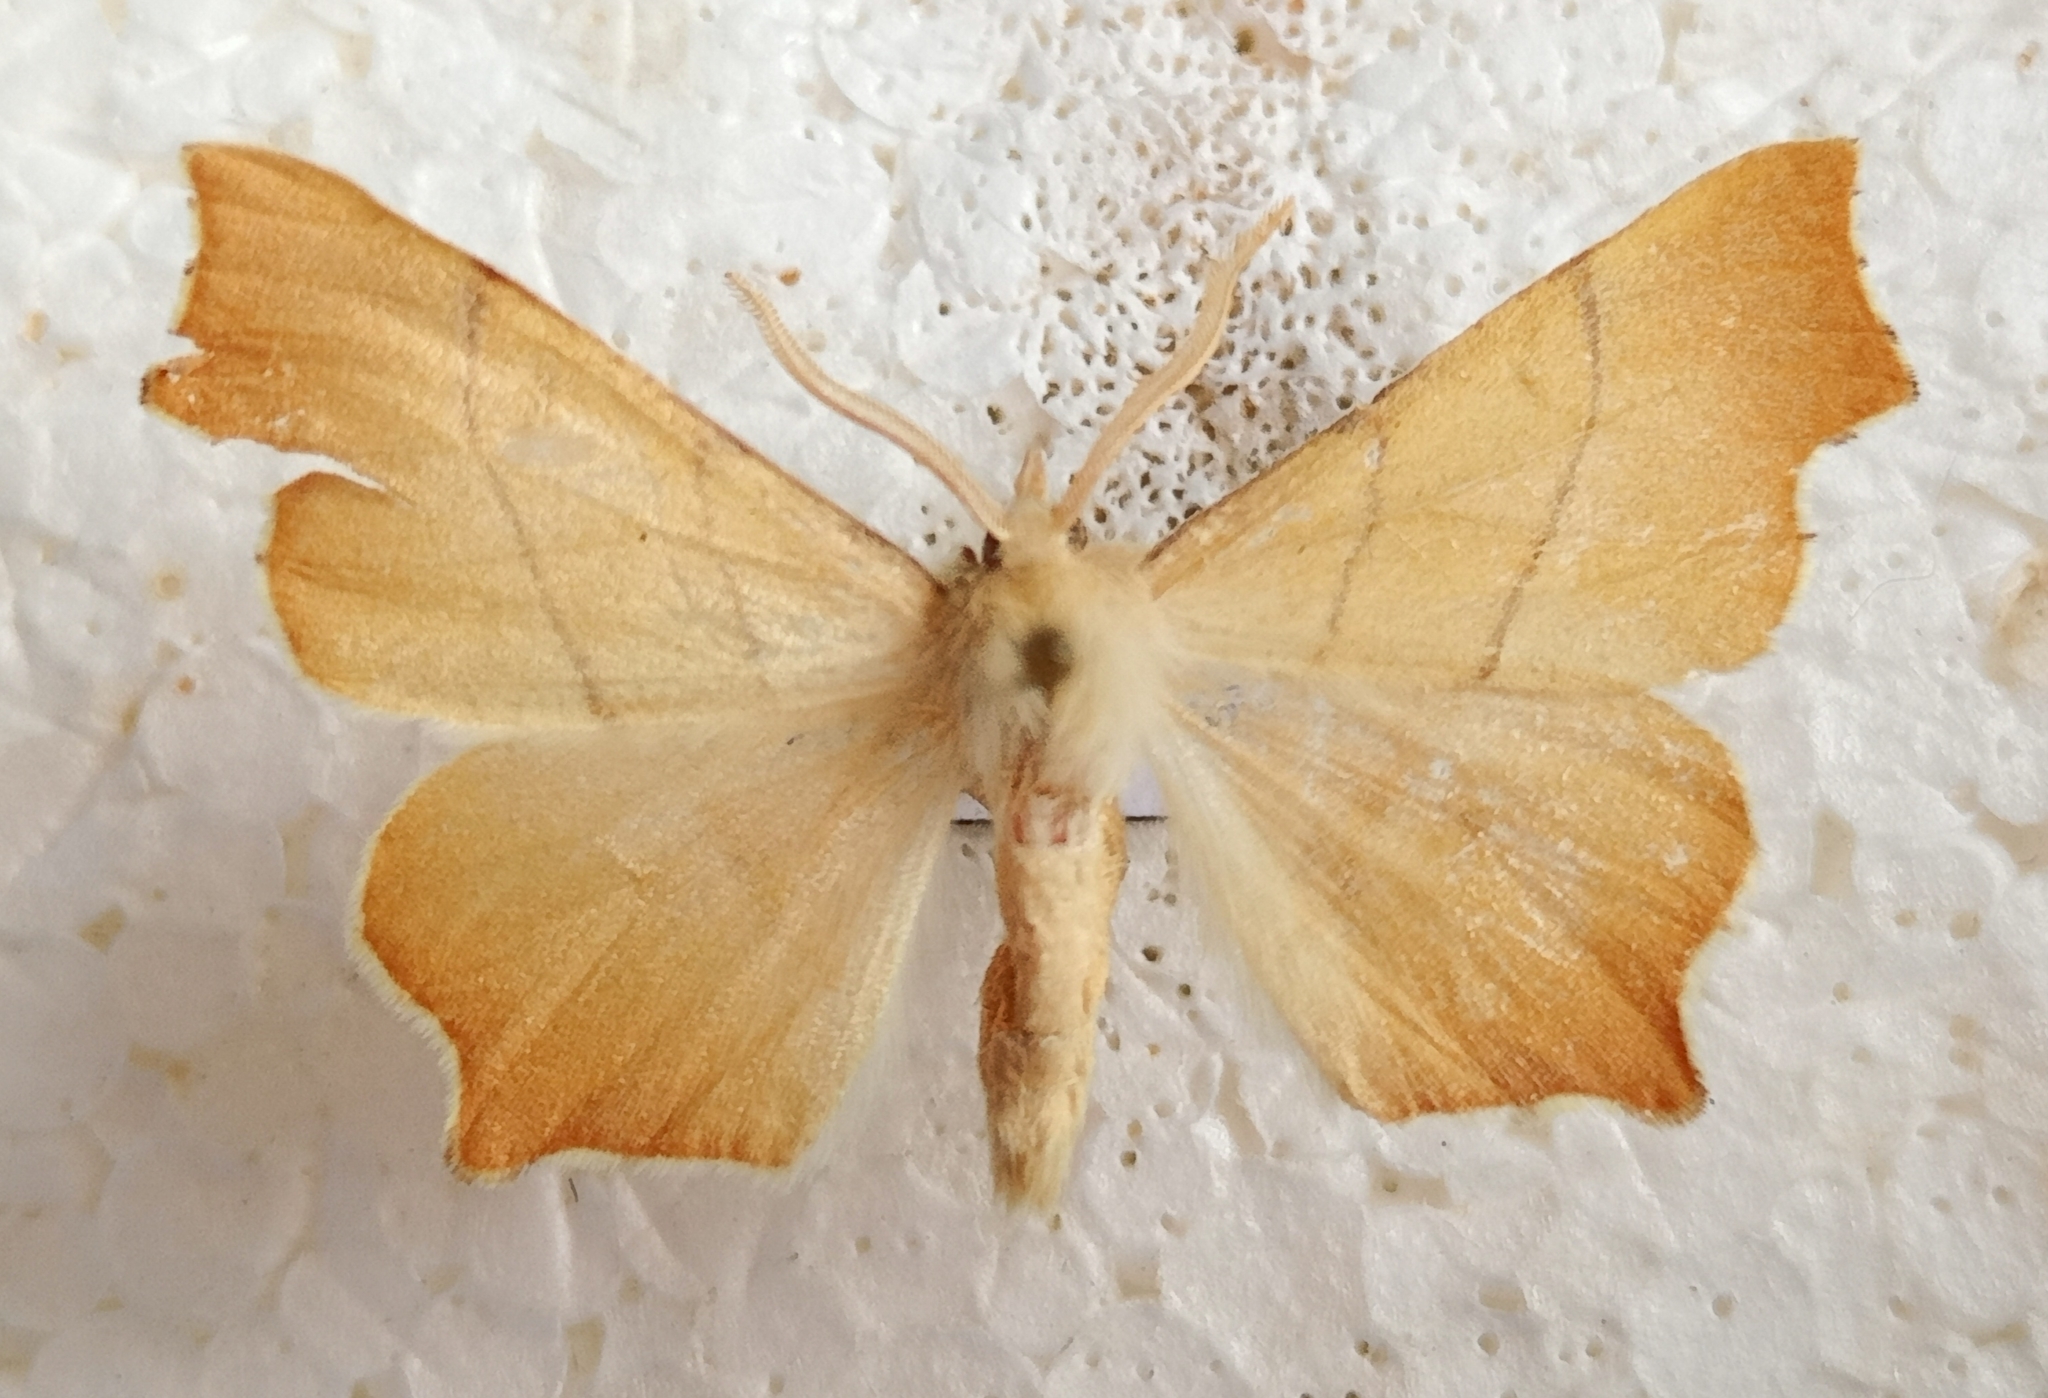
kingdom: Animalia
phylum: Arthropoda
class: Insecta
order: Lepidoptera
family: Geometridae
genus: Ennomos
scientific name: Ennomos quercaria
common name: Clouded august thorn
